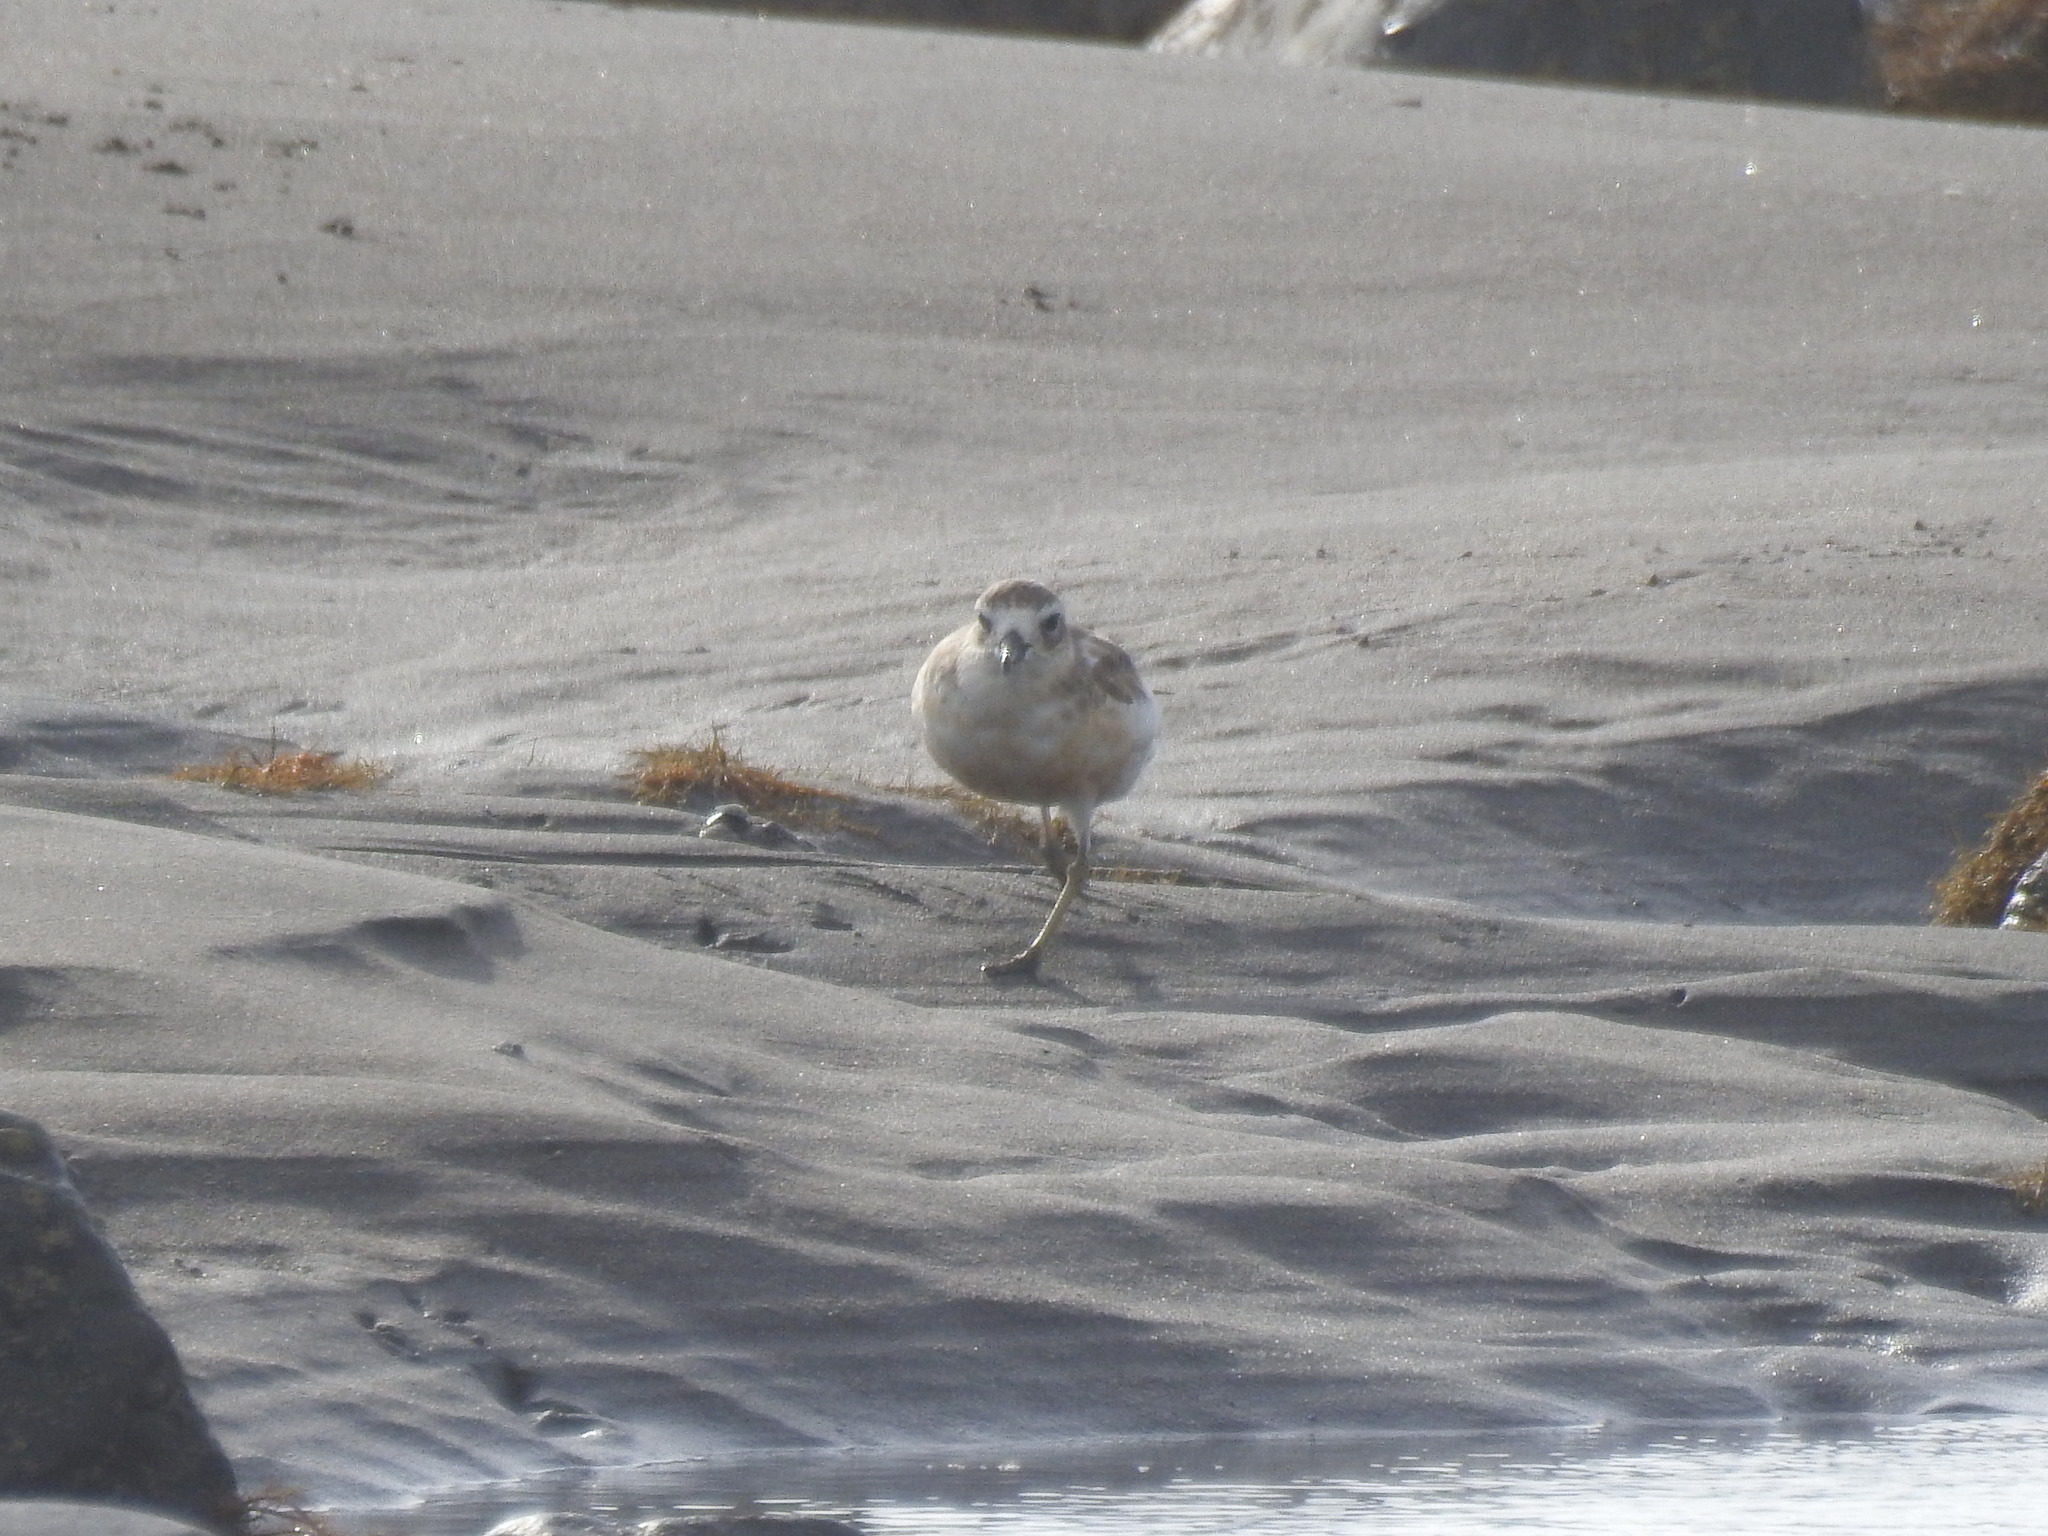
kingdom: Animalia
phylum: Chordata
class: Aves
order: Charadriiformes
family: Charadriidae
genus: Anarhynchus
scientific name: Anarhynchus
